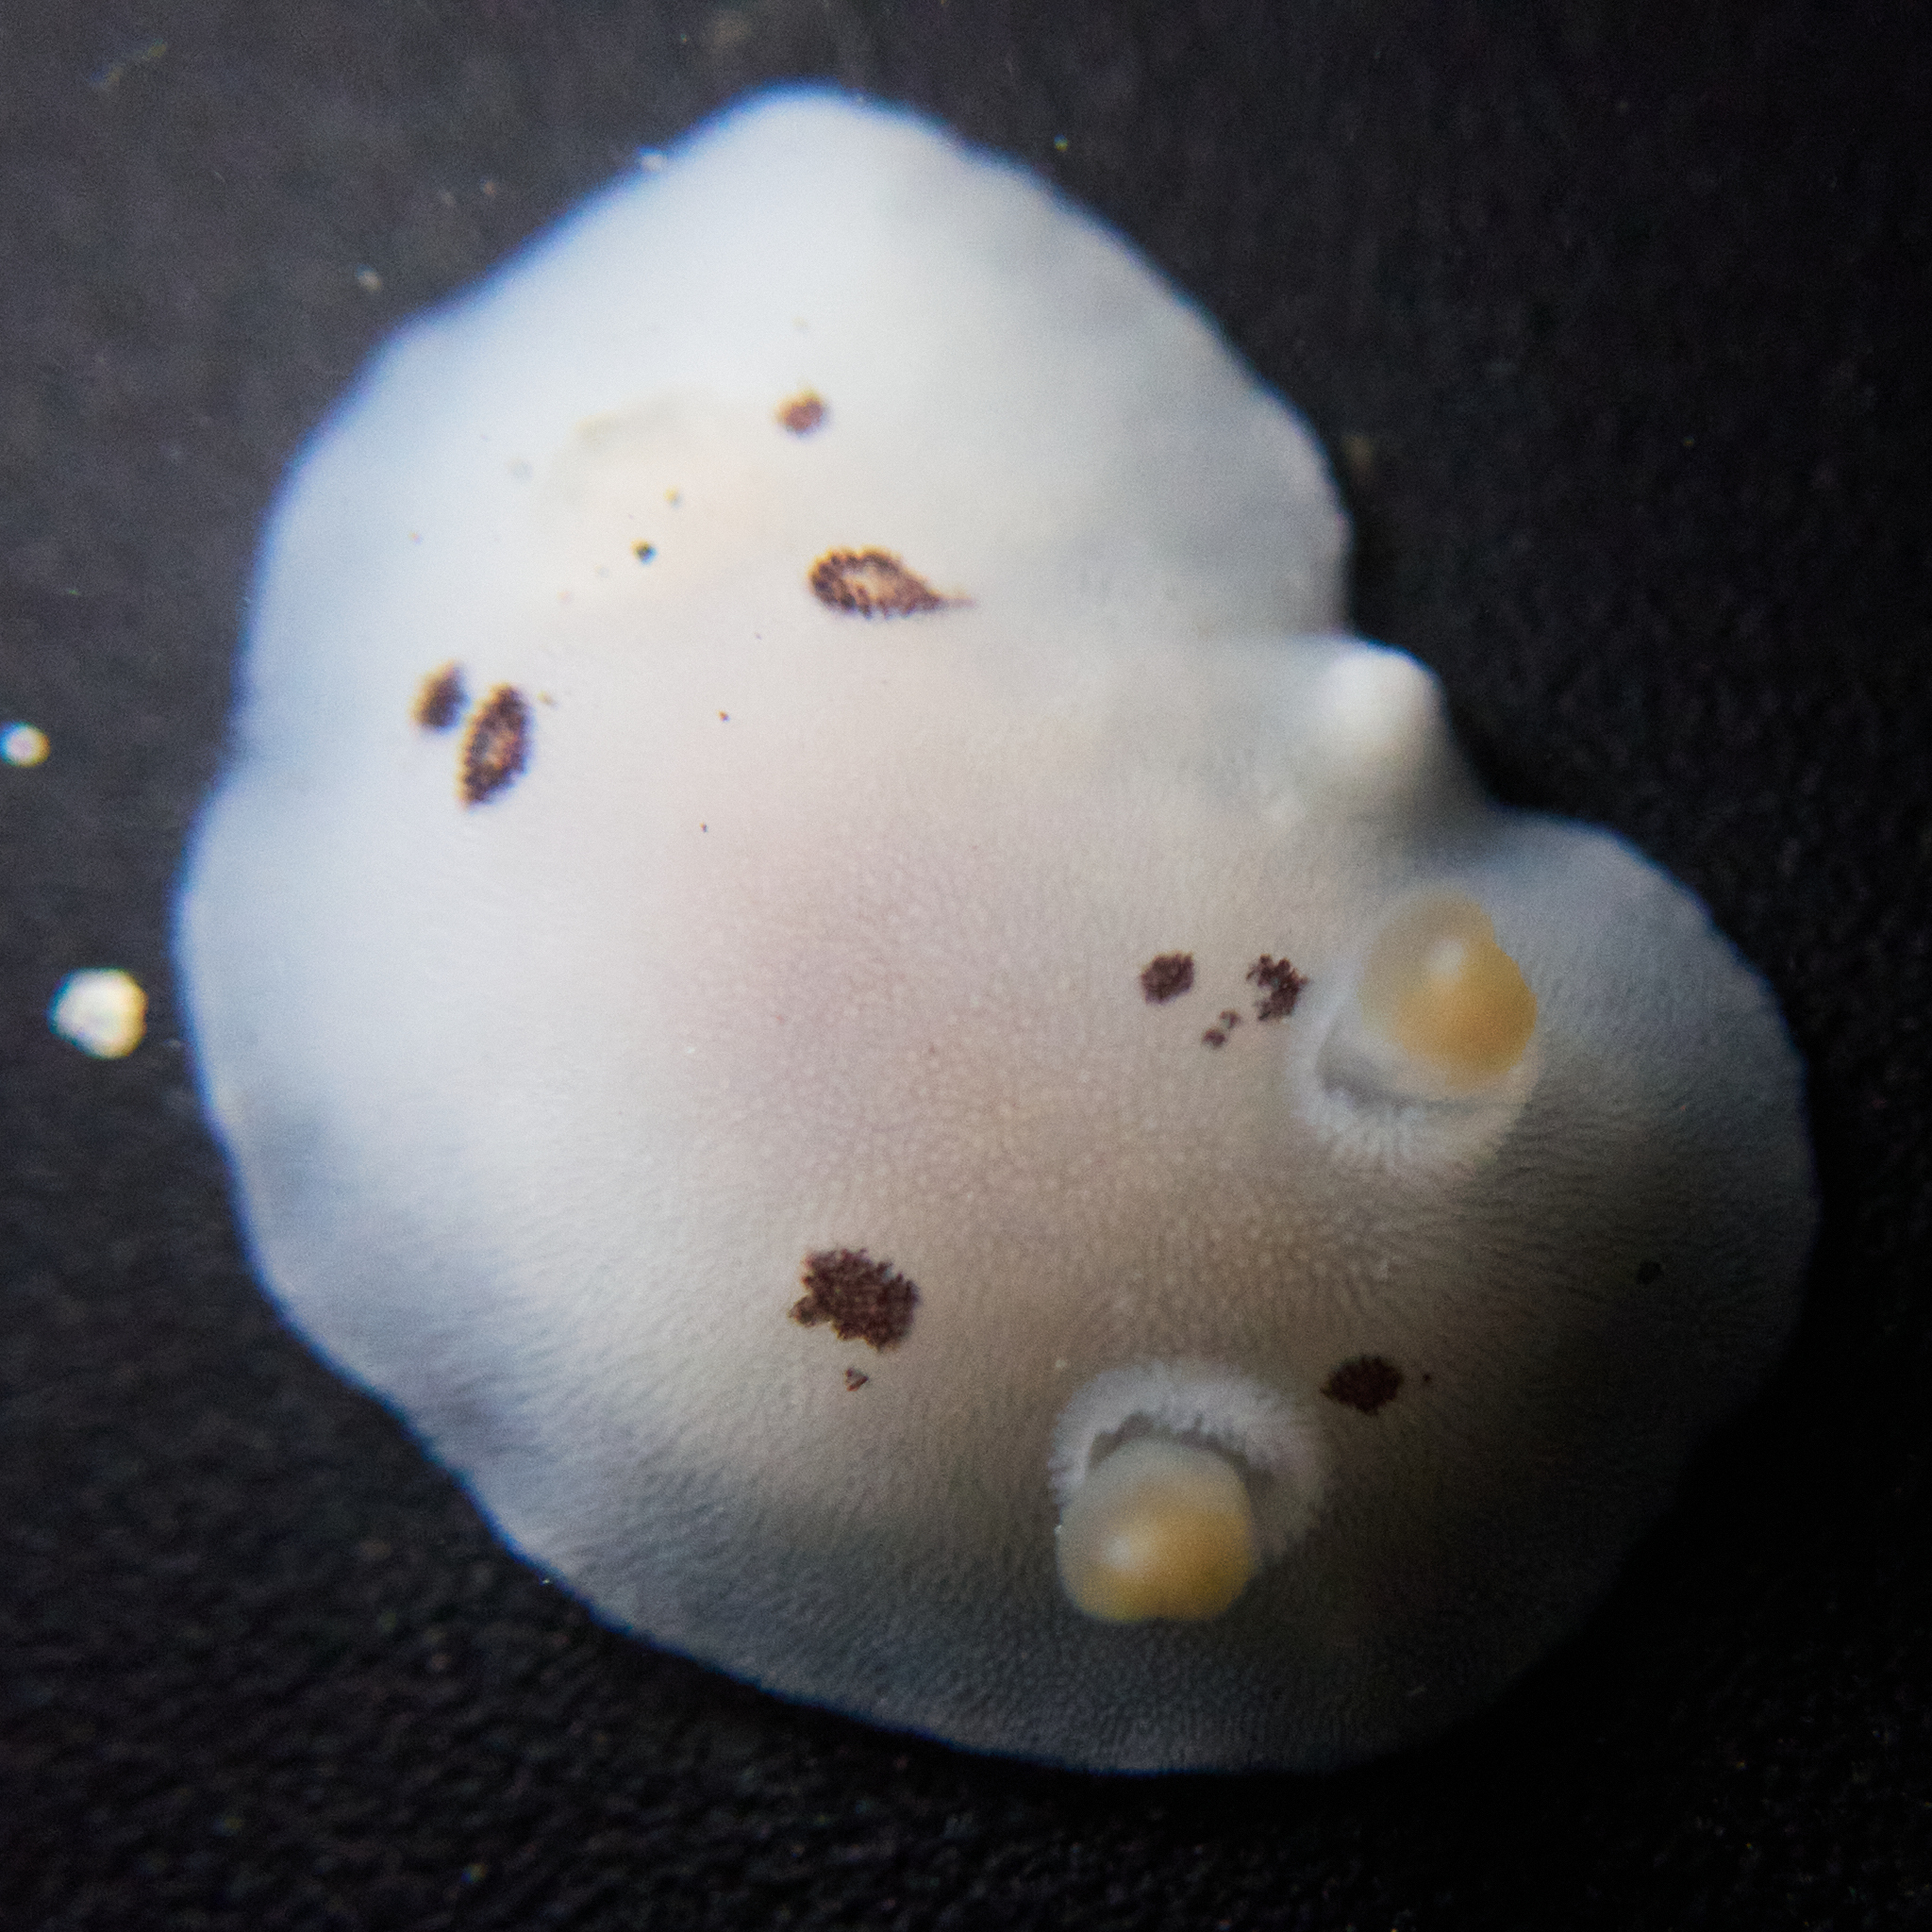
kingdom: Animalia
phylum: Mollusca
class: Gastropoda
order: Nudibranchia
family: Discodorididae
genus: Diaulula
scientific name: Diaulula sandiegensis
